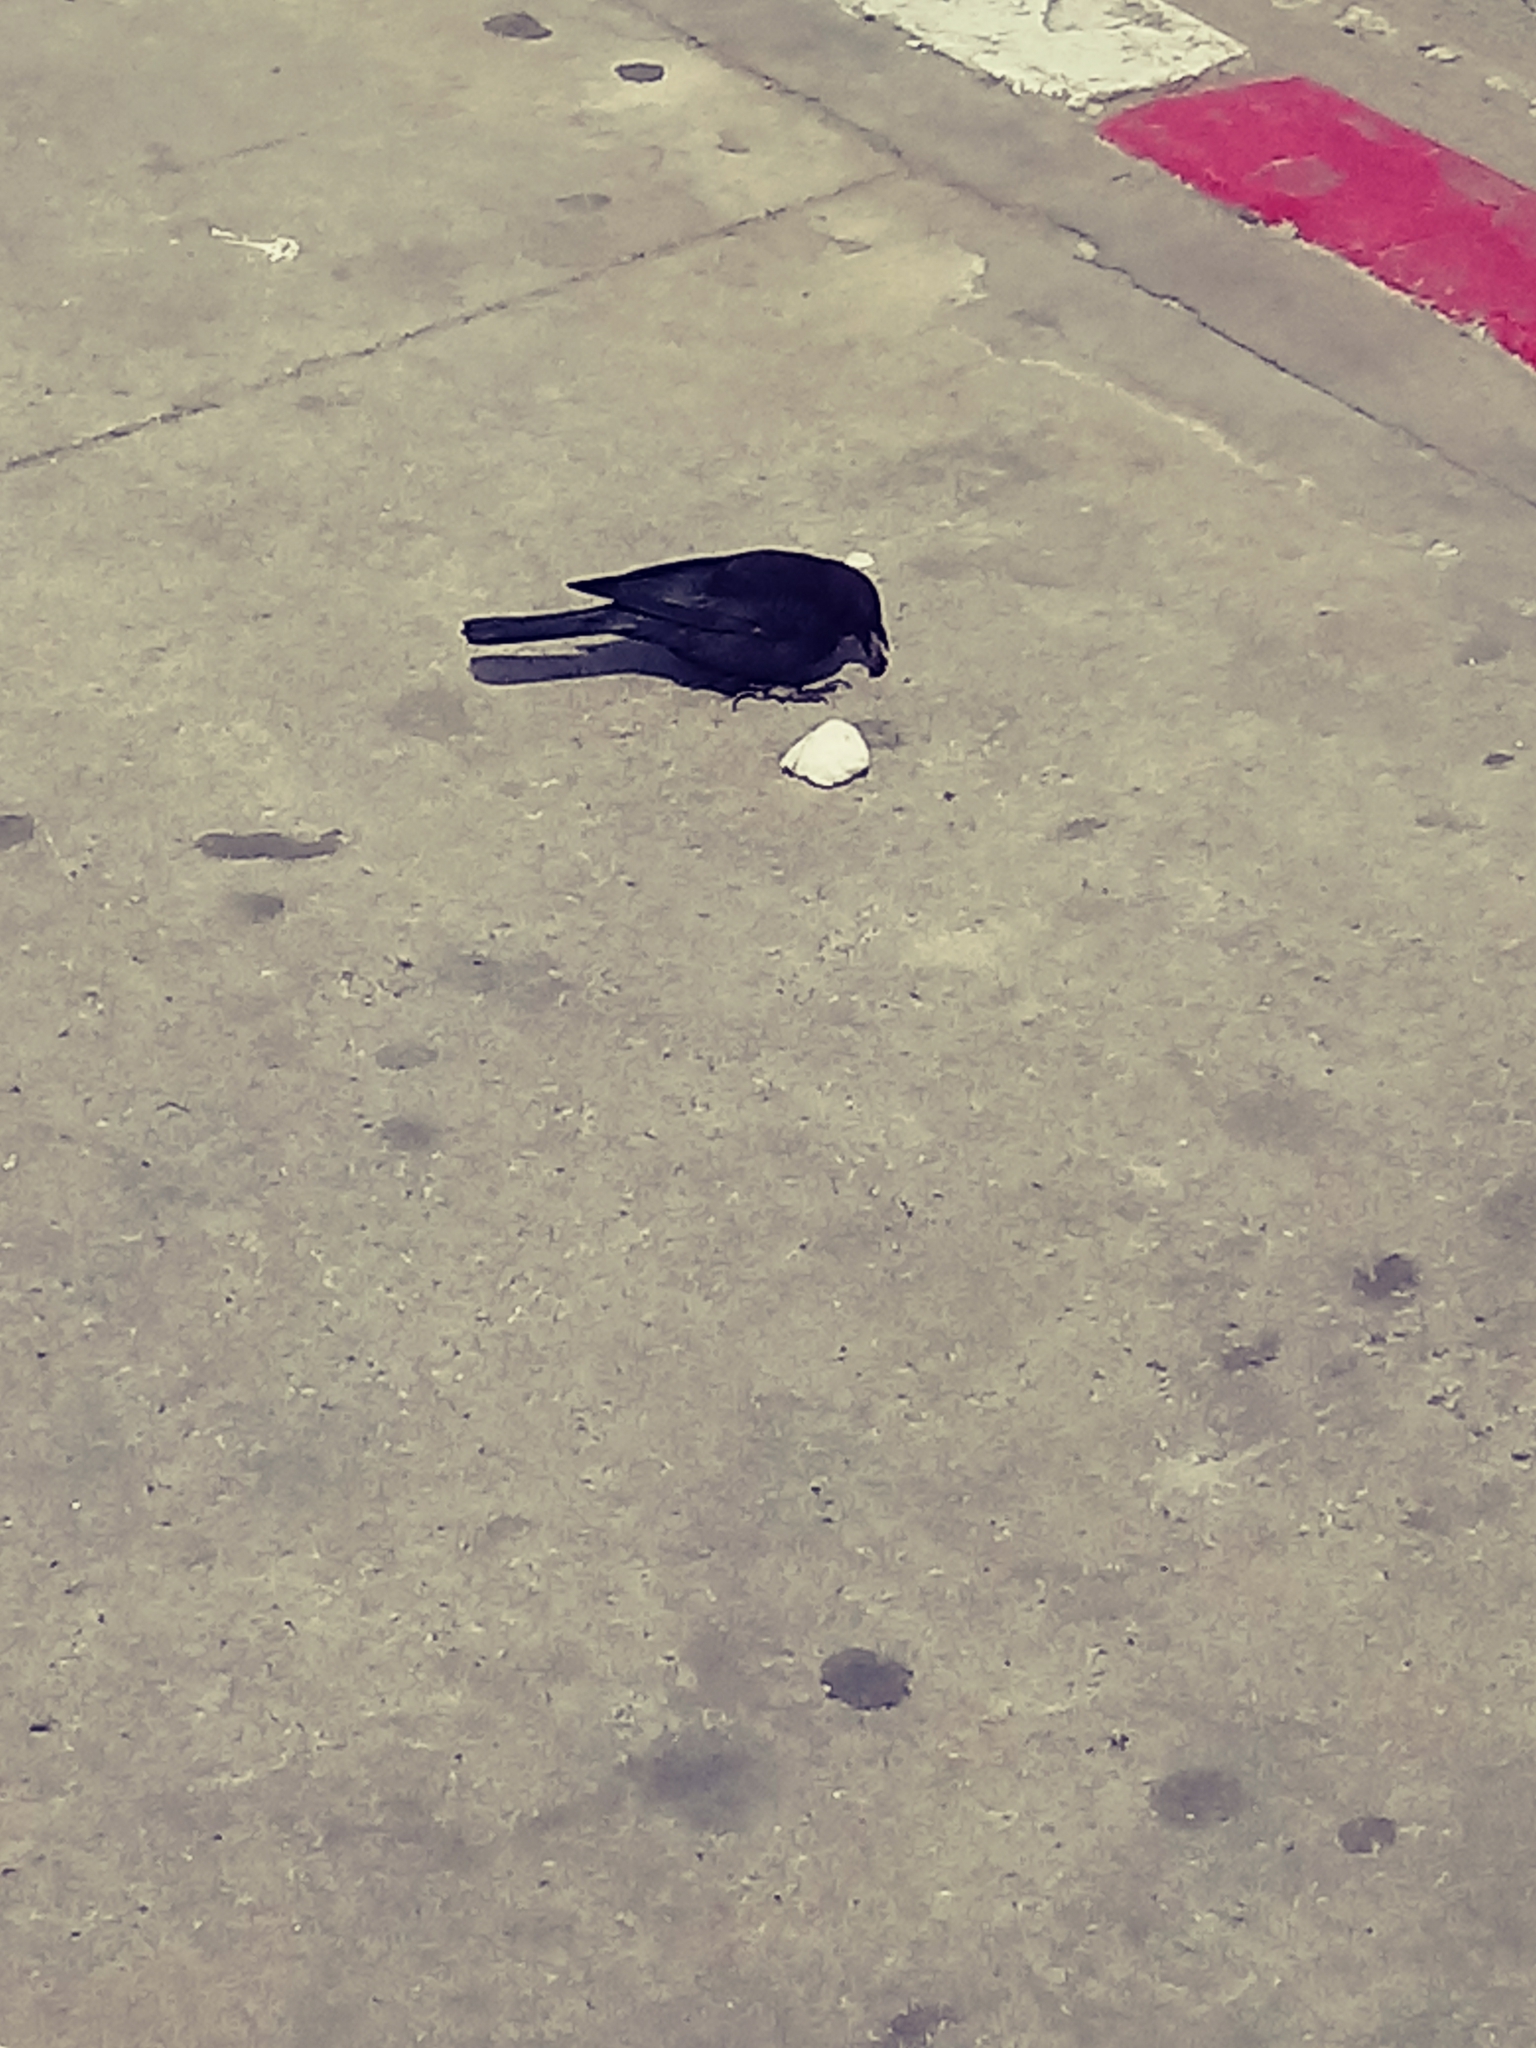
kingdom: Animalia
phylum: Chordata
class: Aves
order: Passeriformes
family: Icteridae
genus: Euphagus
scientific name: Euphagus cyanocephalus
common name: Brewer's blackbird
